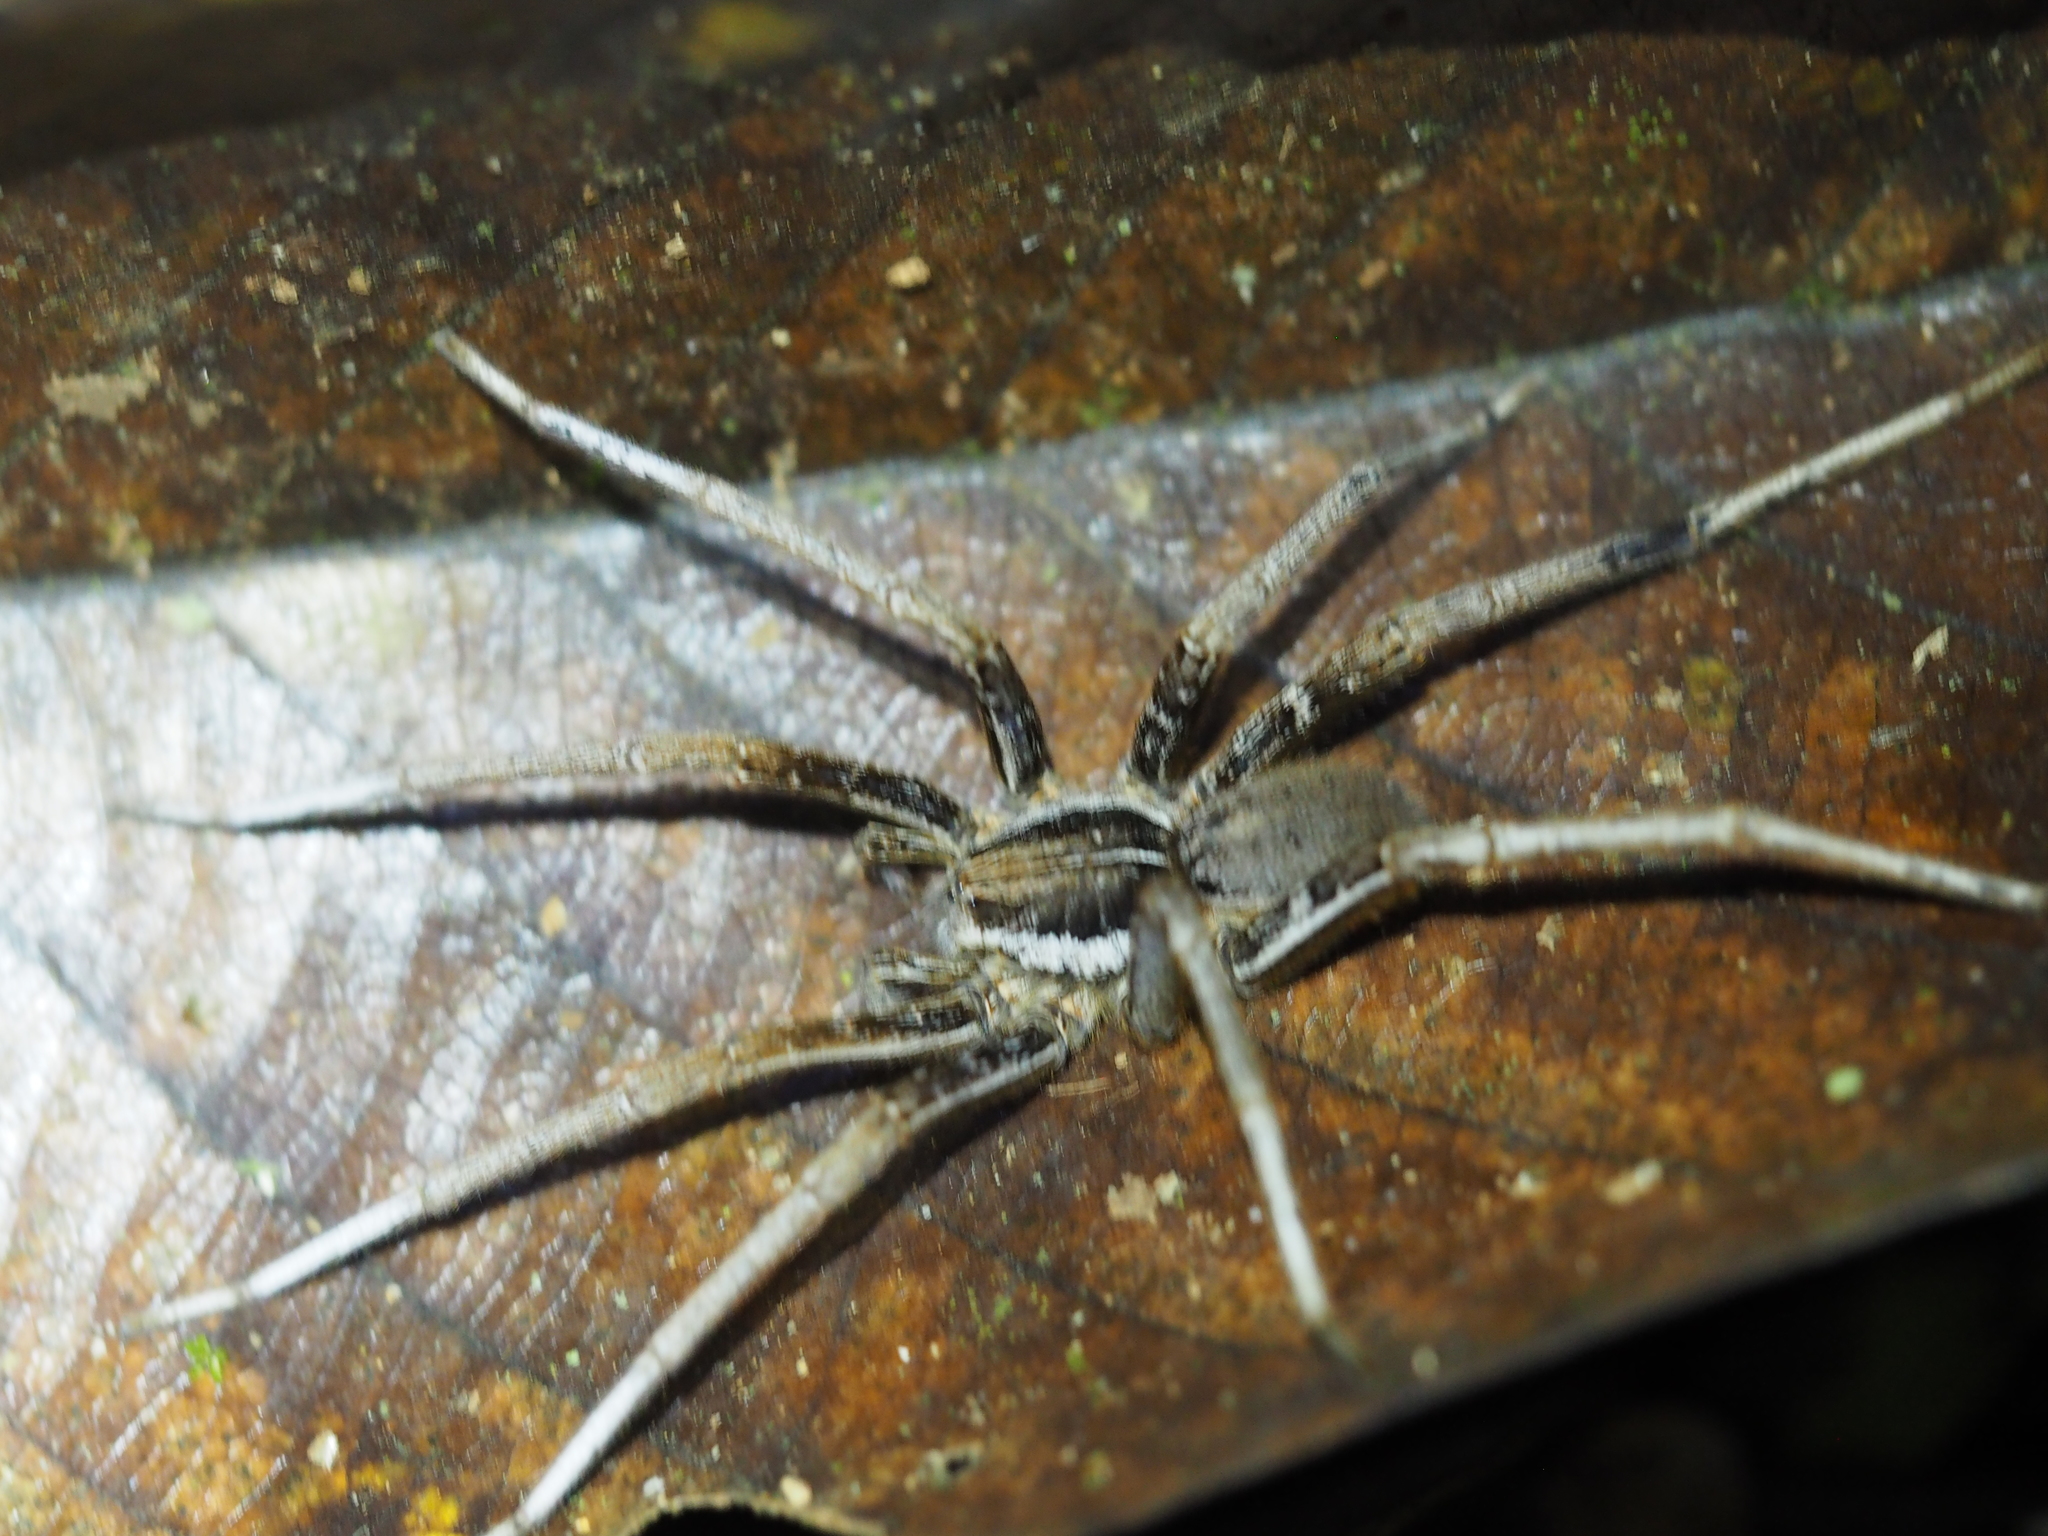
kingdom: Animalia
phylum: Arthropoda
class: Arachnida
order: Araneae
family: Ctenidae
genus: Ancylometes
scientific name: Ancylometes bogotensis
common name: Wandering spiders
